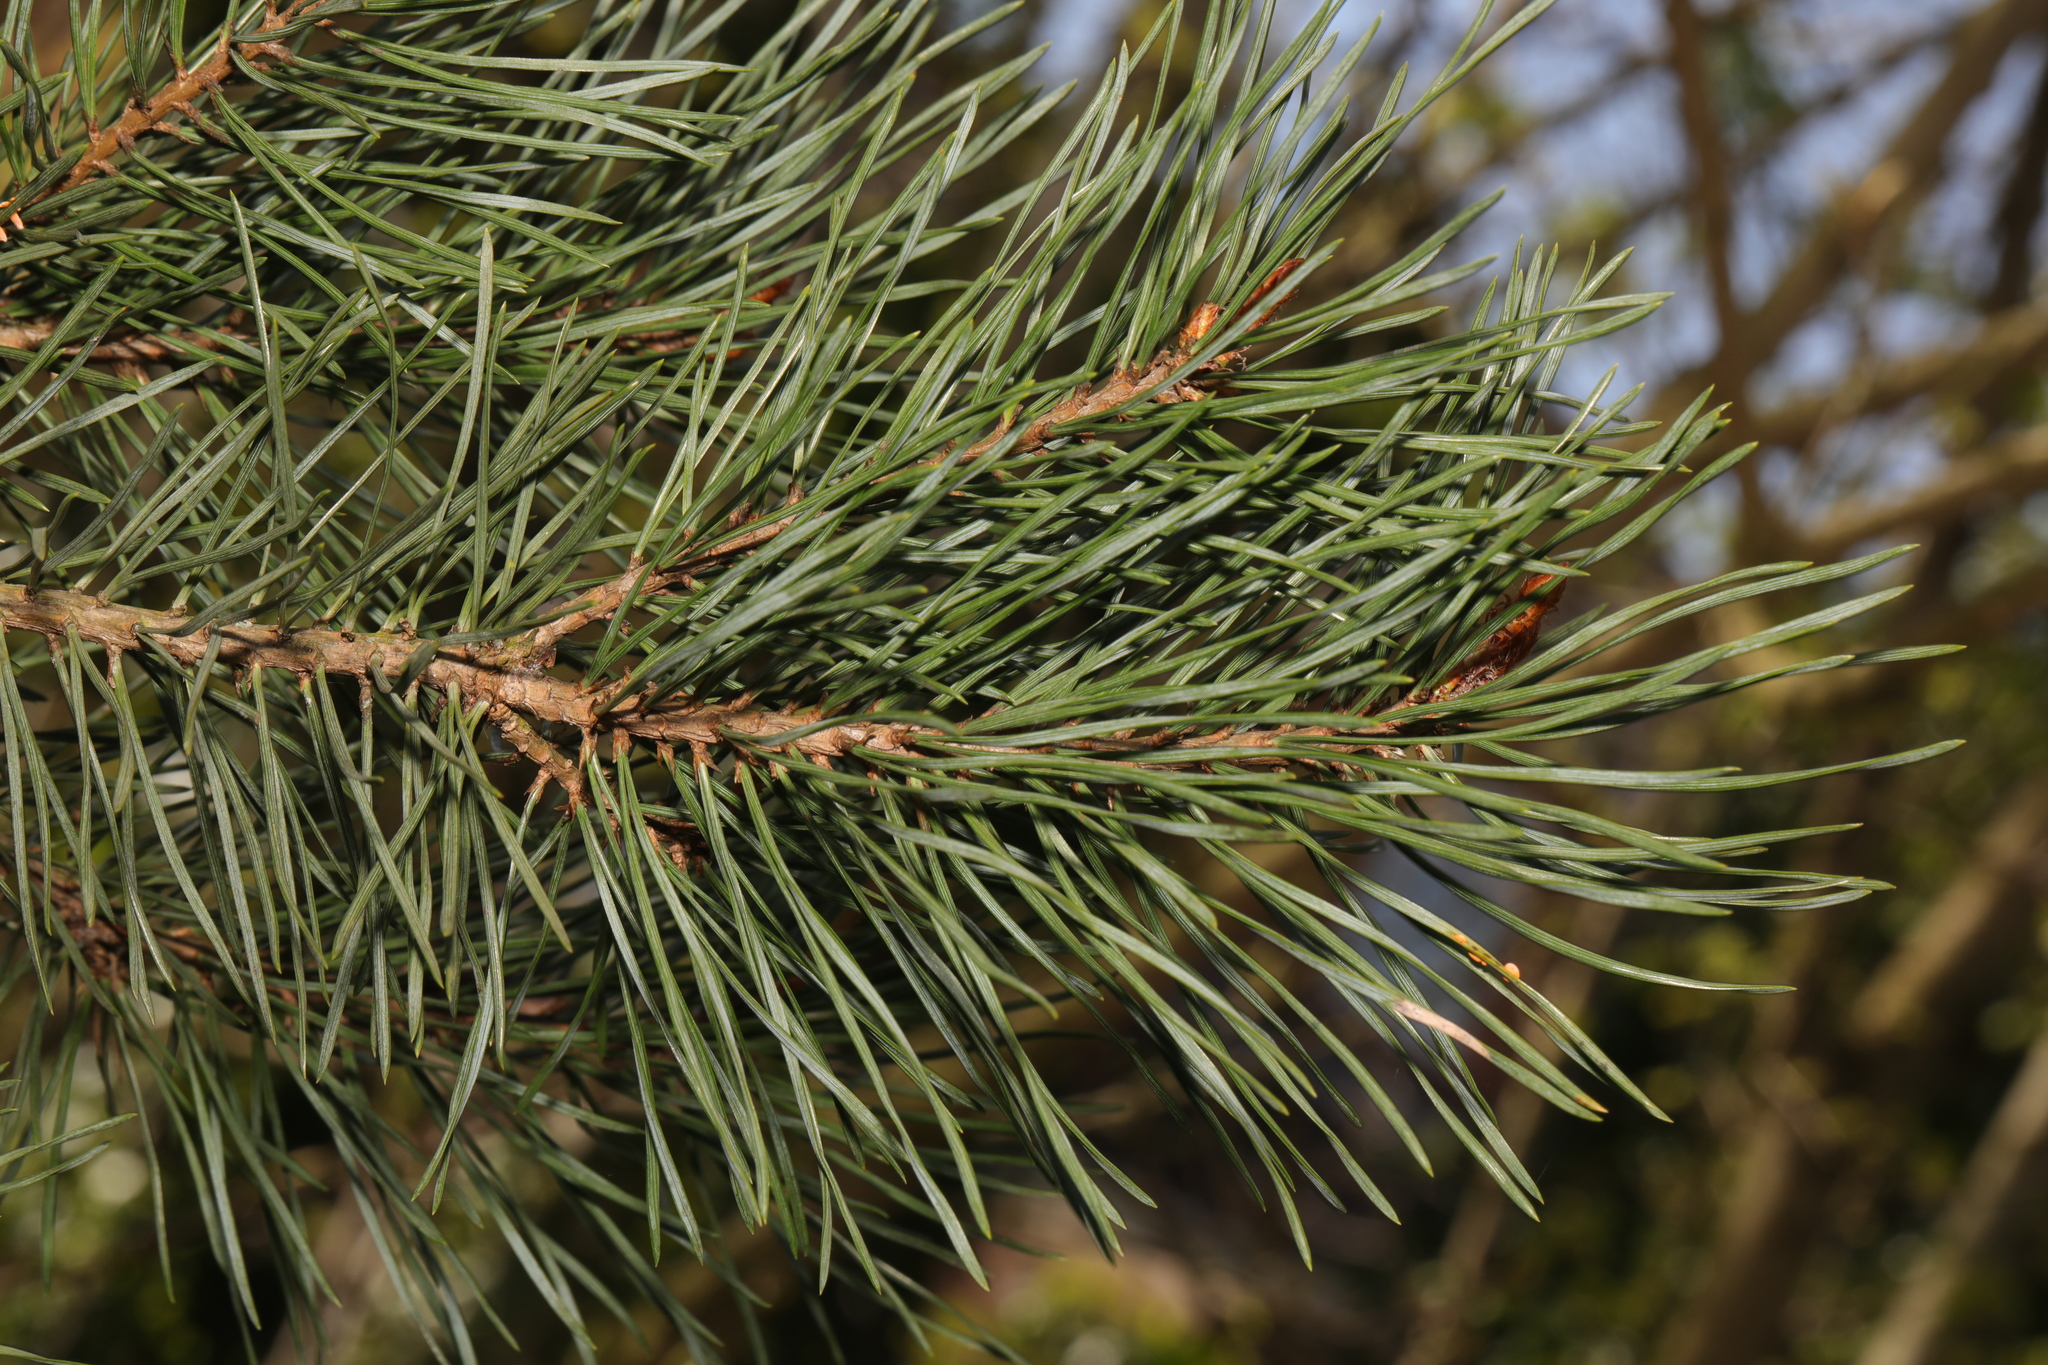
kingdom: Plantae
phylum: Tracheophyta
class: Pinopsida
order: Pinales
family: Pinaceae
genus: Pinus
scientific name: Pinus sylvestris
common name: Scots pine
